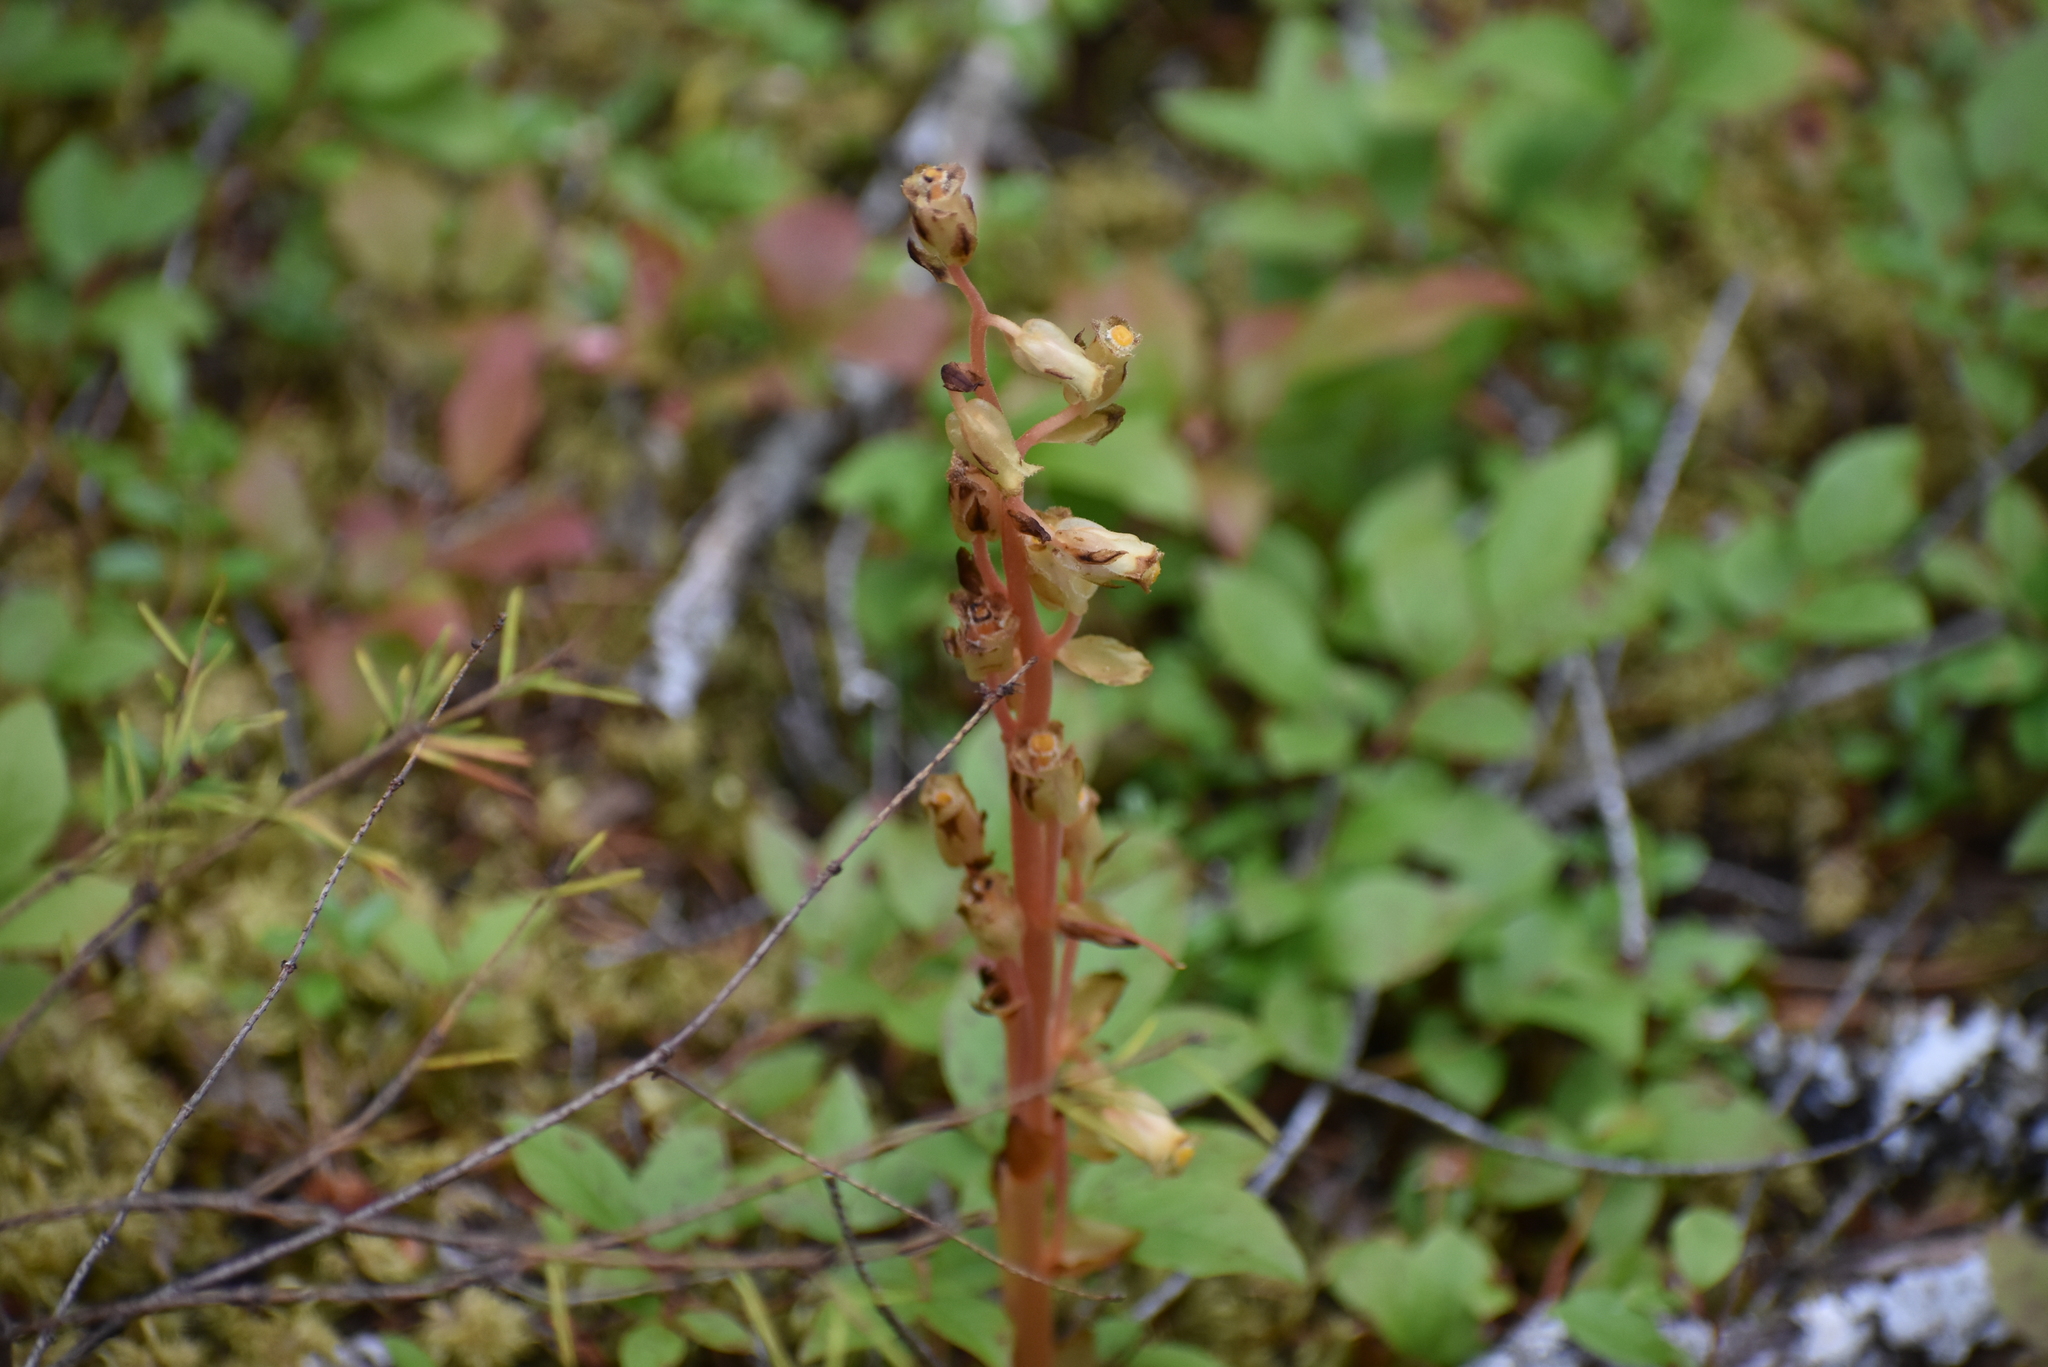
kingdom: Plantae
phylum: Tracheophyta
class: Magnoliopsida
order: Ericales
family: Ericaceae
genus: Hypopitys
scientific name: Hypopitys monotropa
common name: Yellow bird's-nest
